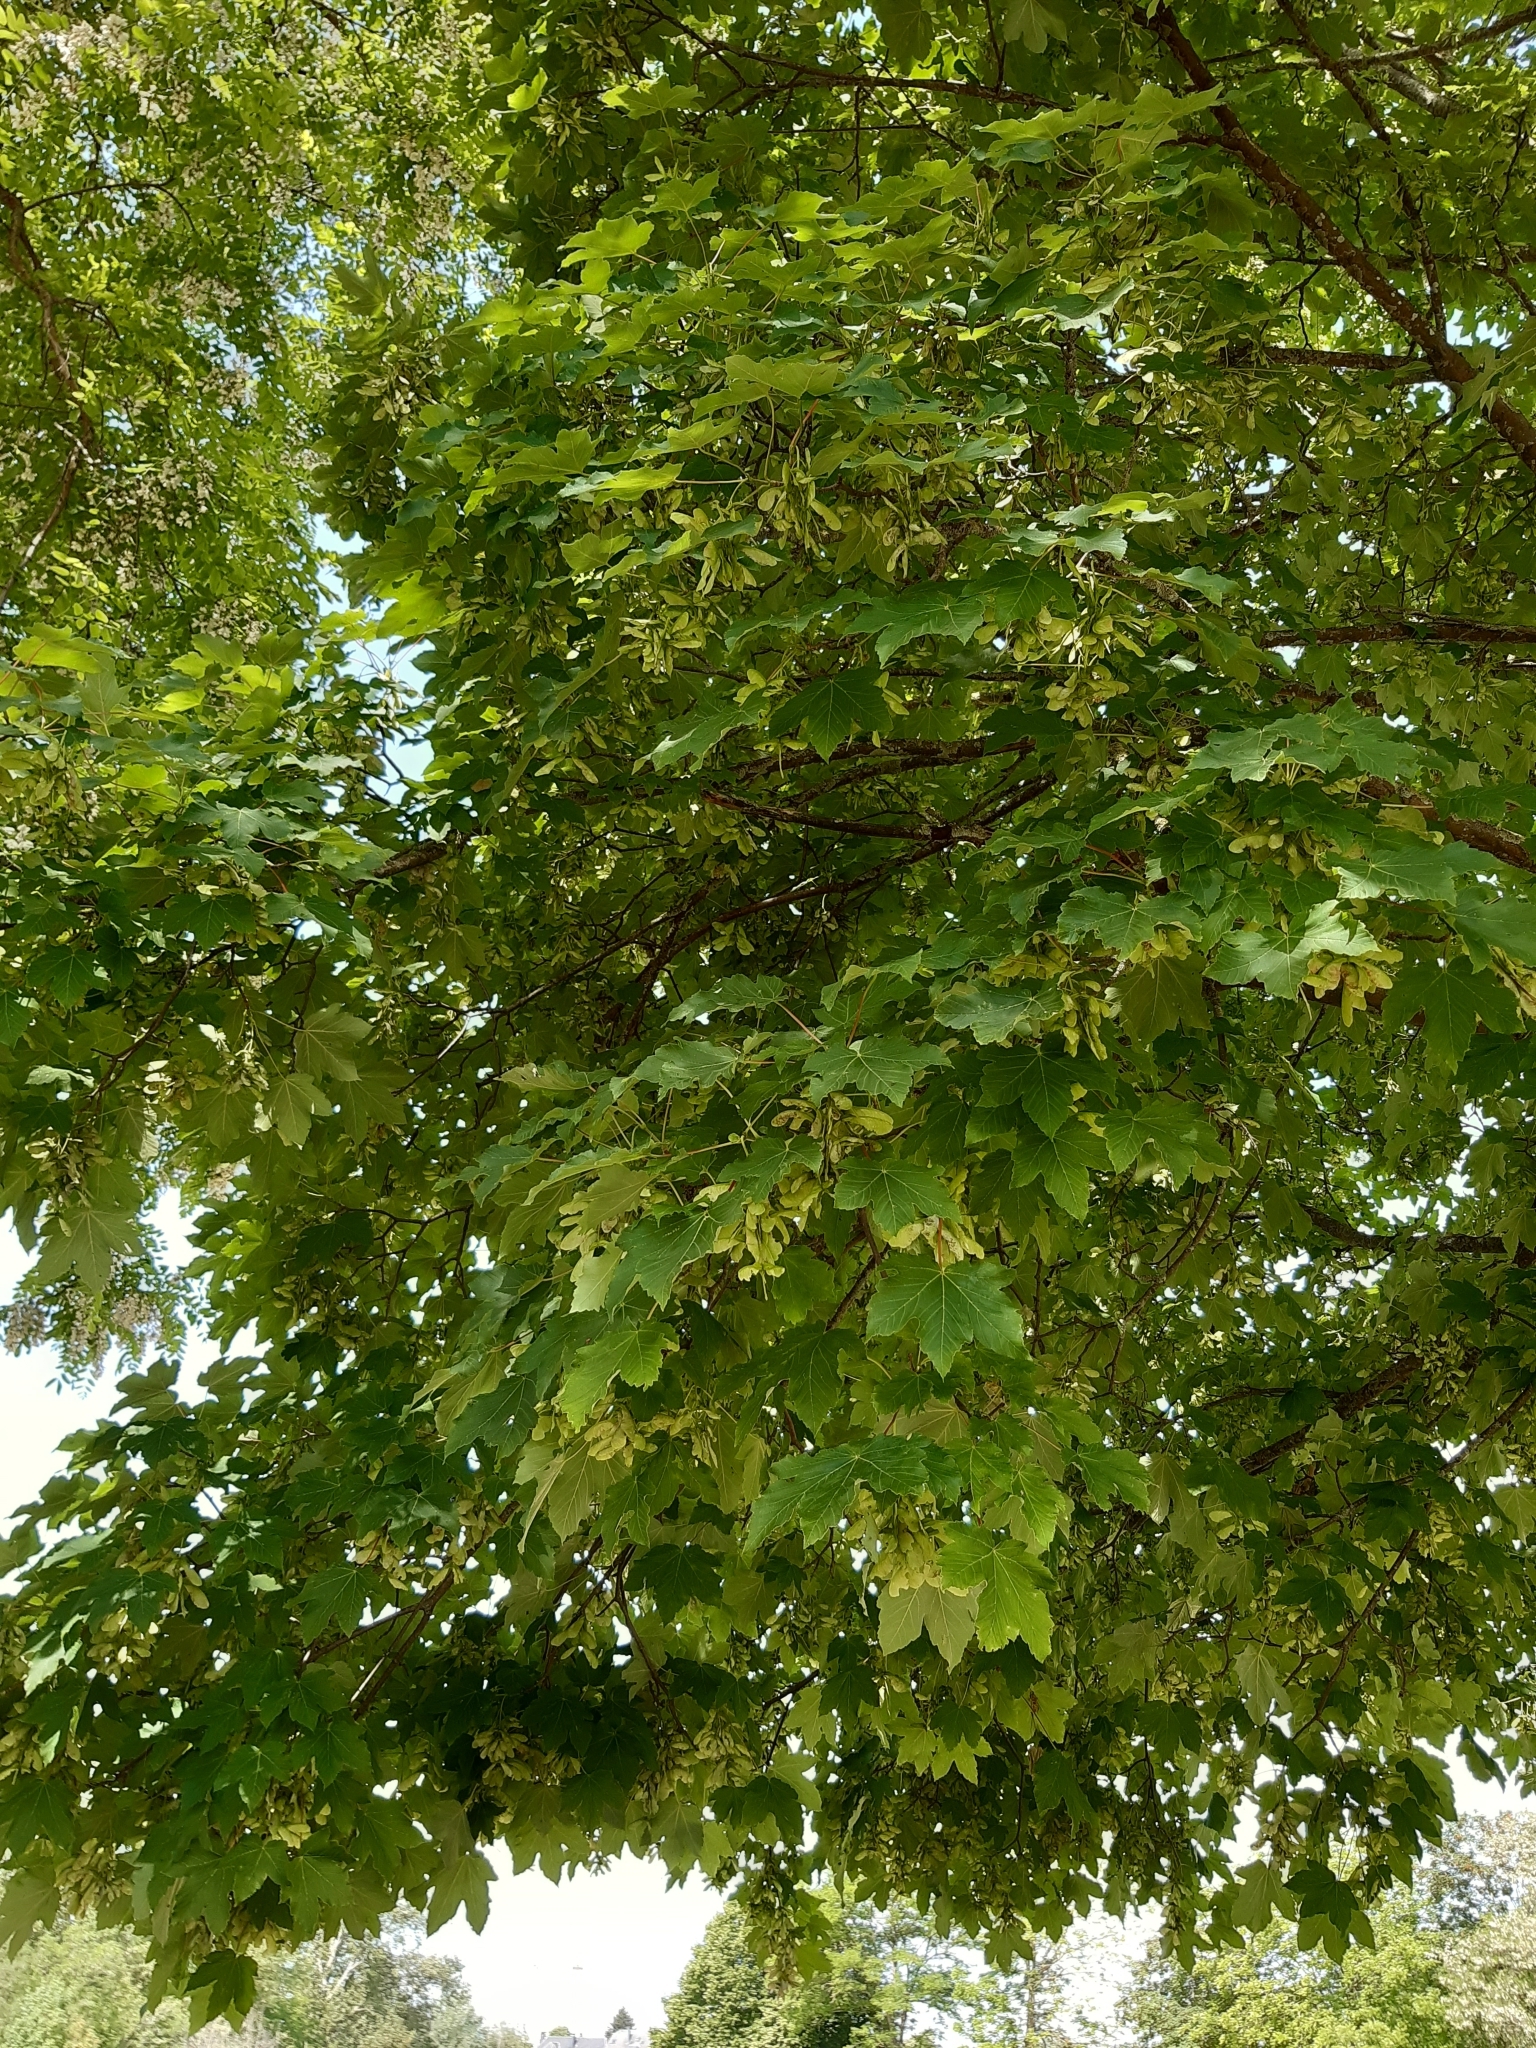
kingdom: Plantae
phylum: Tracheophyta
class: Magnoliopsida
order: Sapindales
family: Sapindaceae
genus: Acer
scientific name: Acer platanoides
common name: Norway maple
